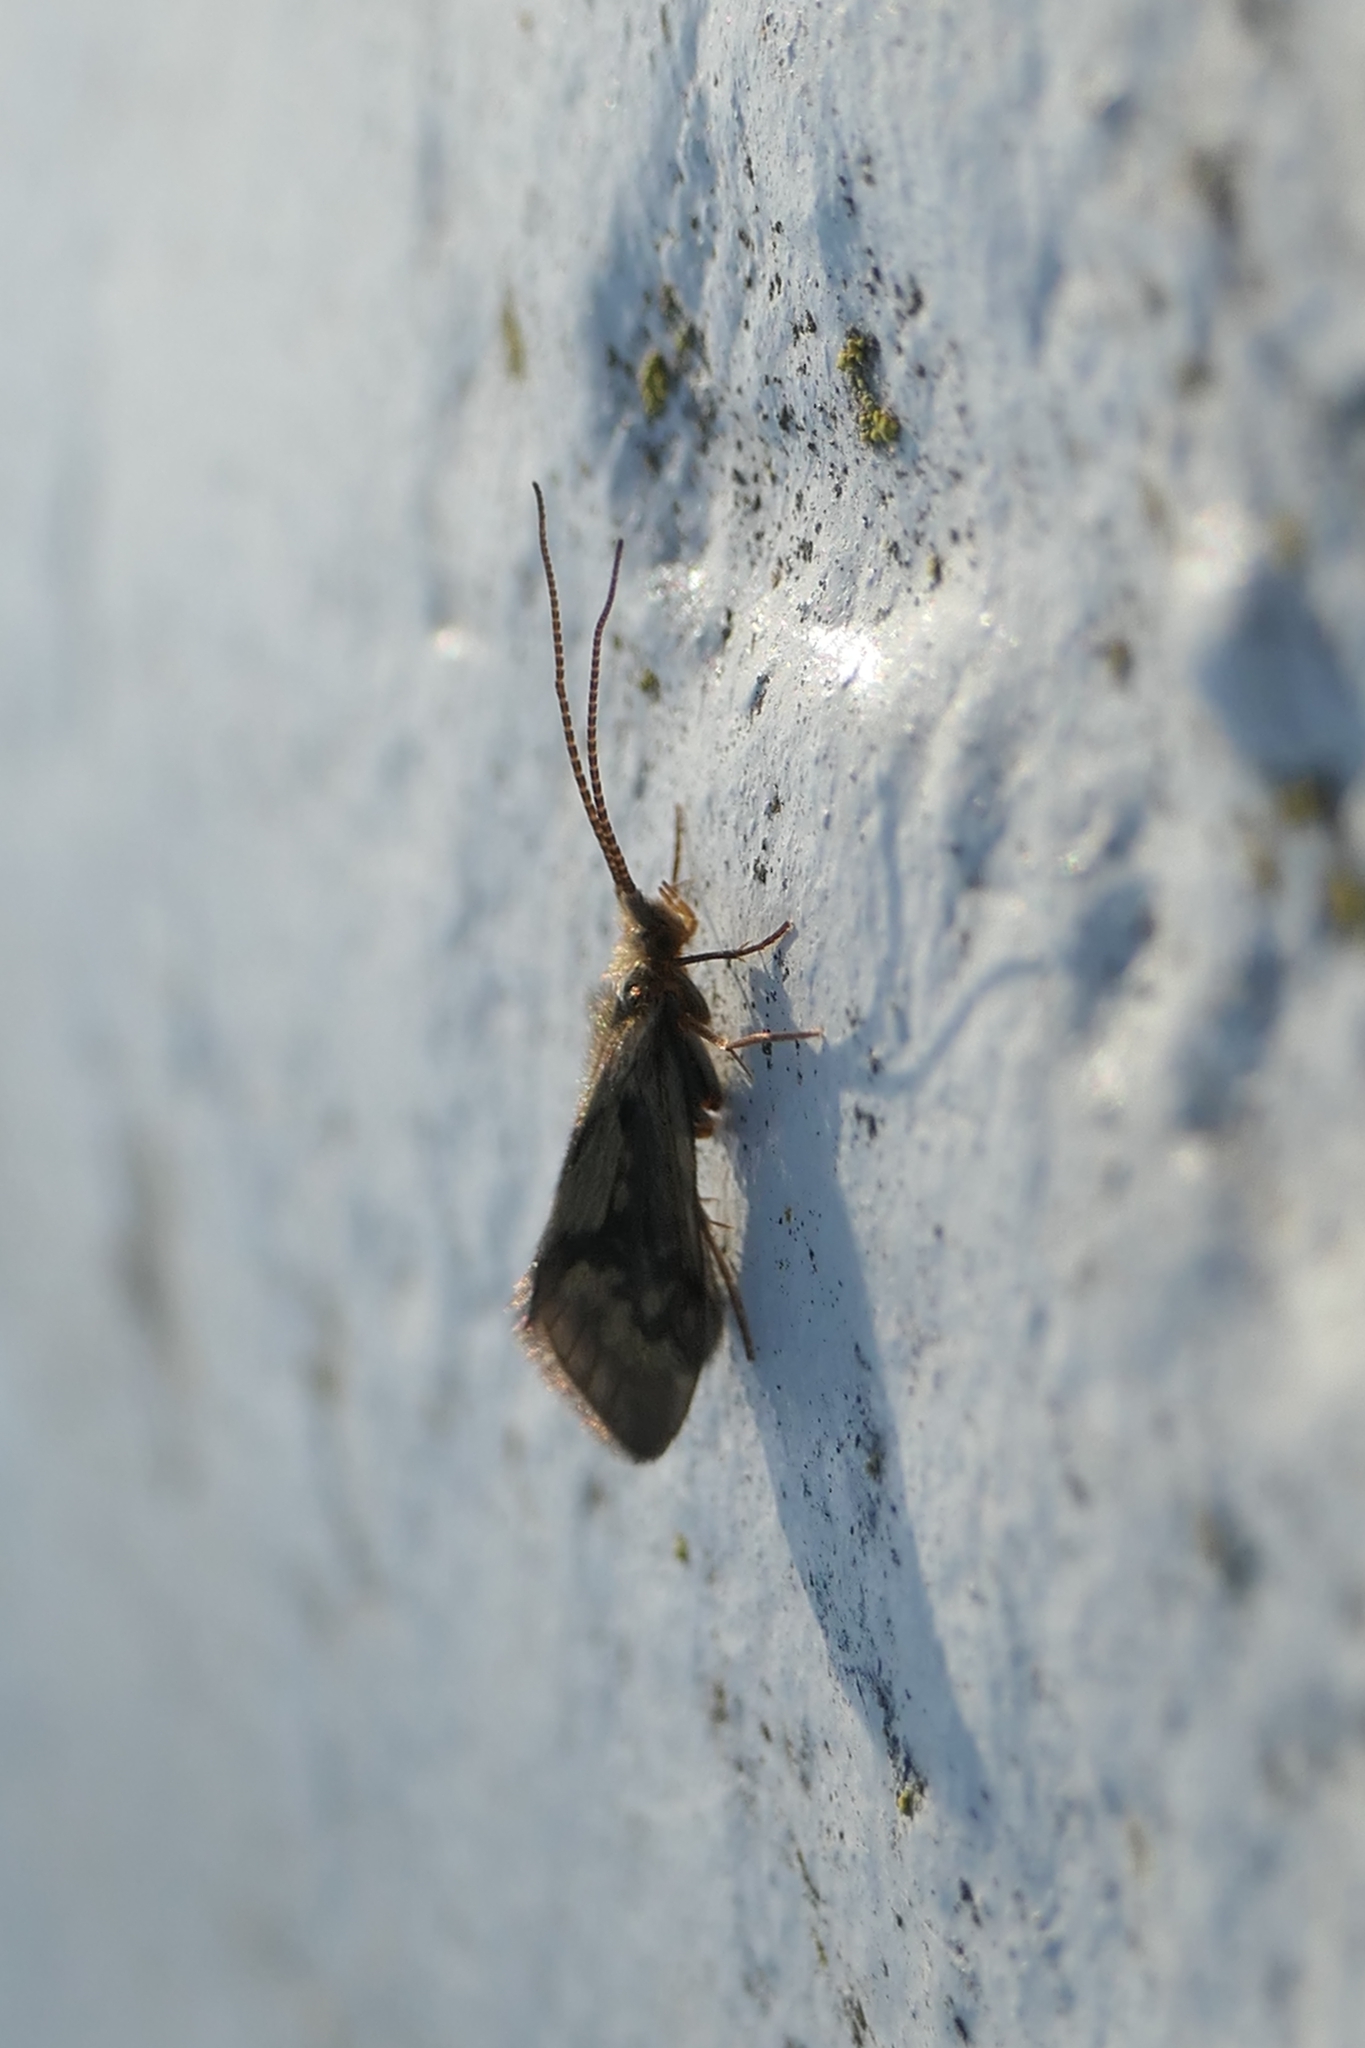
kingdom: Animalia
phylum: Arthropoda
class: Insecta
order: Trichoptera
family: Conoesucidae
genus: Pycnocentrodes
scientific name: Pycnocentrodes aeris
